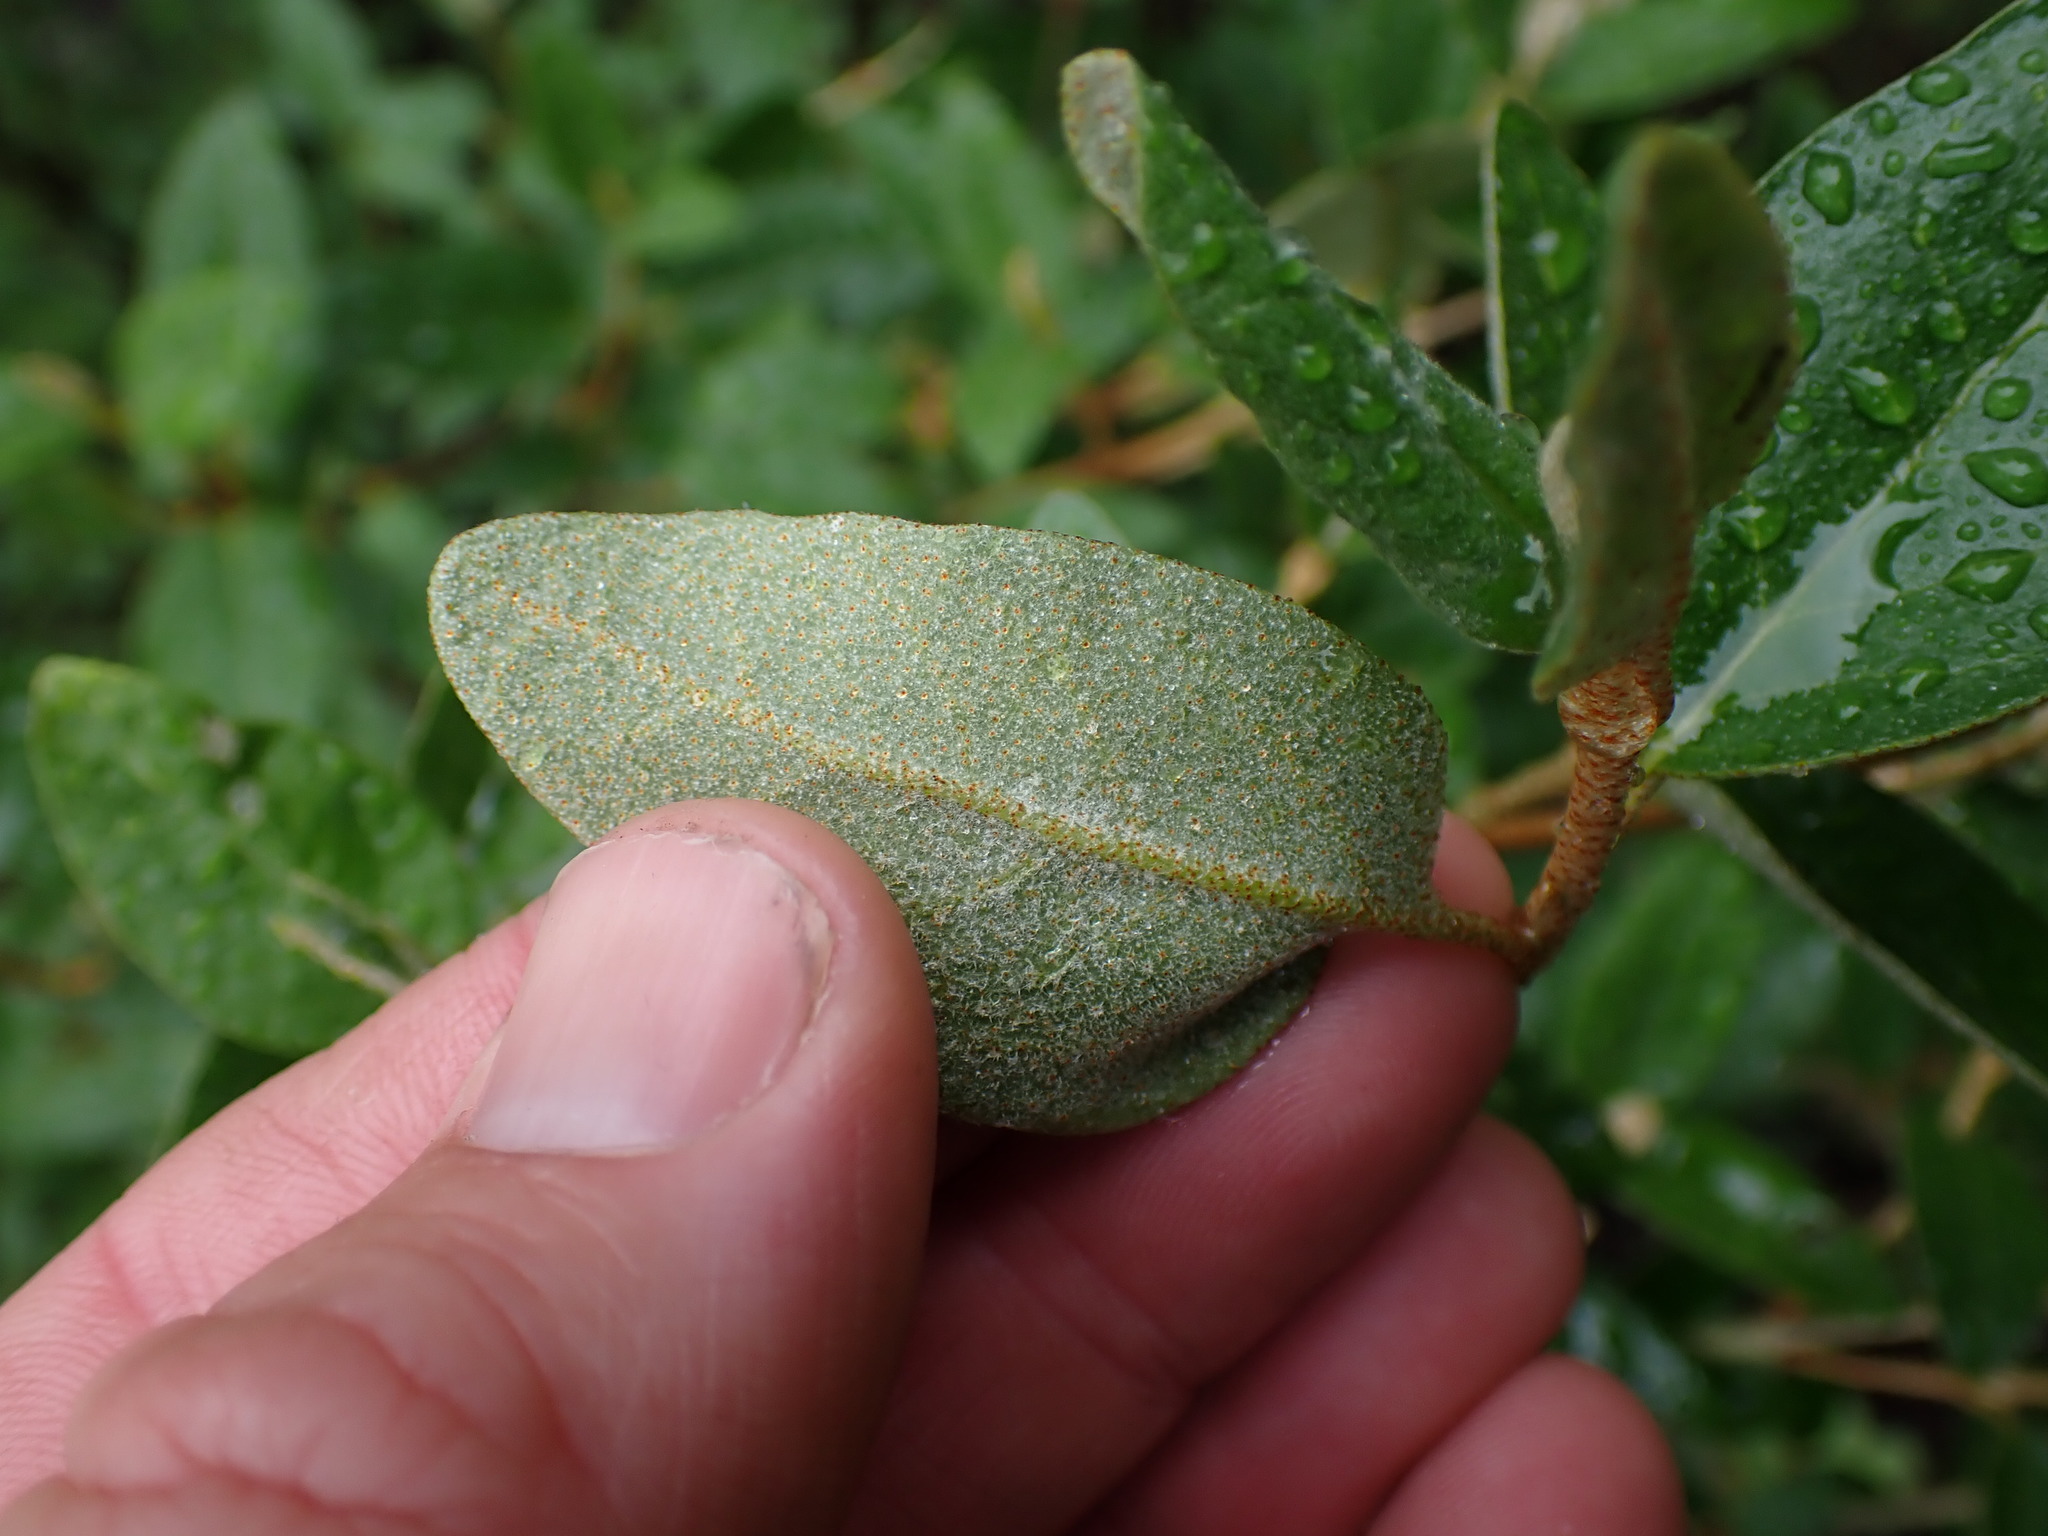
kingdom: Plantae
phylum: Tracheophyta
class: Magnoliopsida
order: Rosales
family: Elaeagnaceae
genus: Shepherdia
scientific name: Shepherdia canadensis
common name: Soapberry
